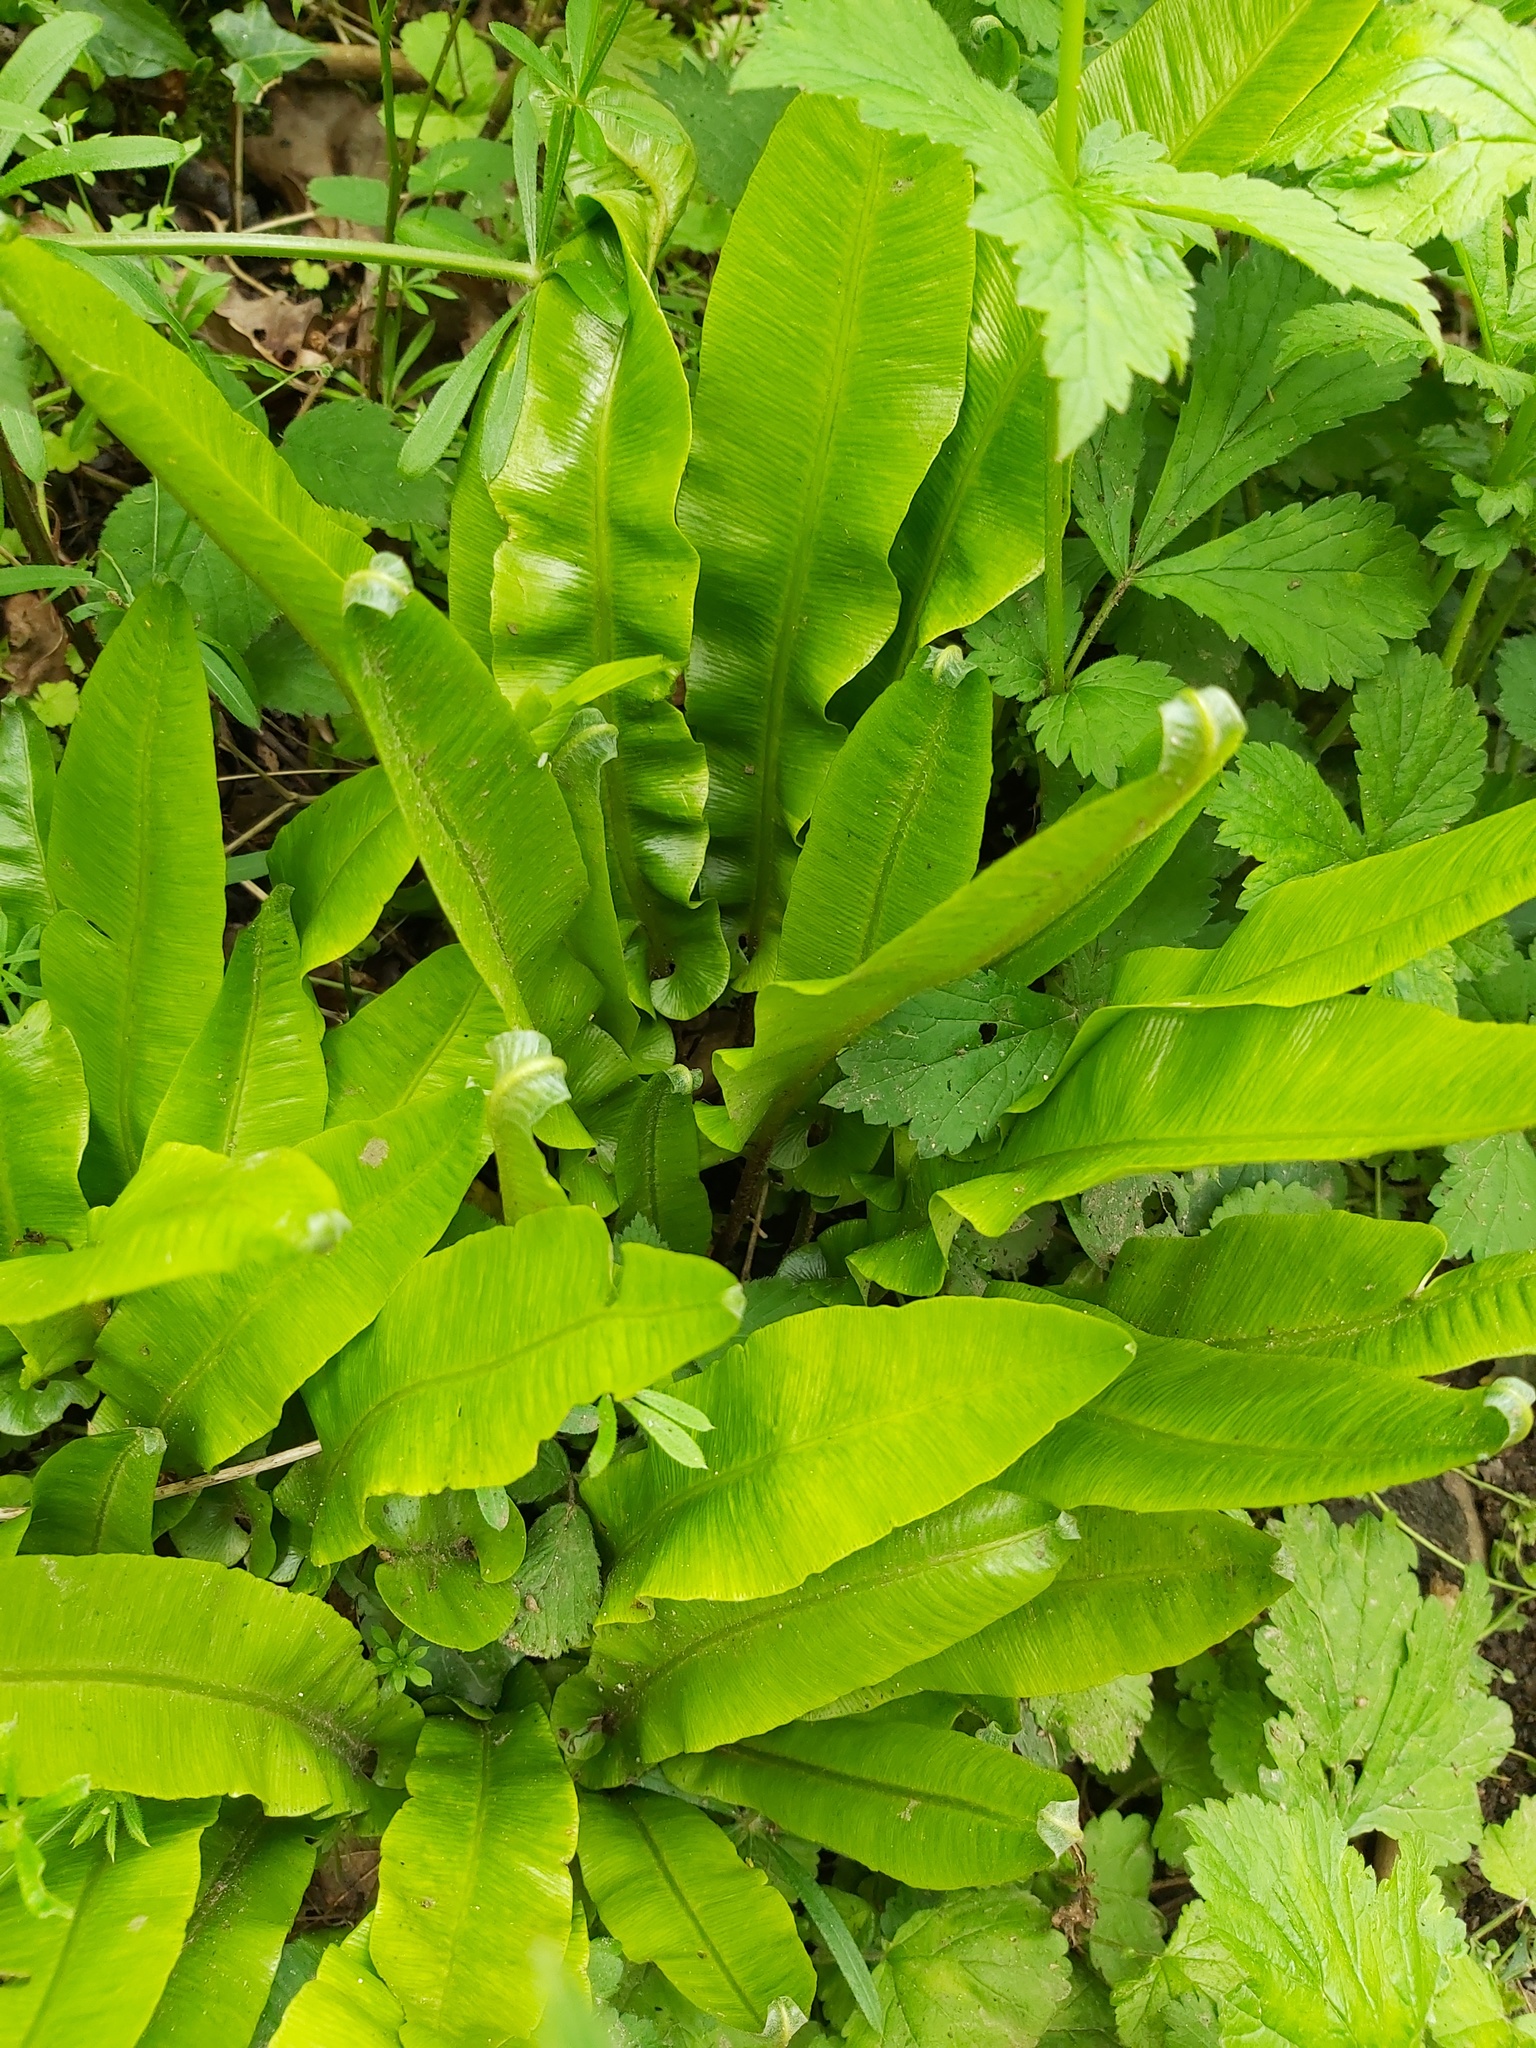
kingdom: Plantae
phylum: Tracheophyta
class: Polypodiopsida
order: Polypodiales
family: Aspleniaceae
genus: Asplenium
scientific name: Asplenium scolopendrium
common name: Hart's-tongue fern
